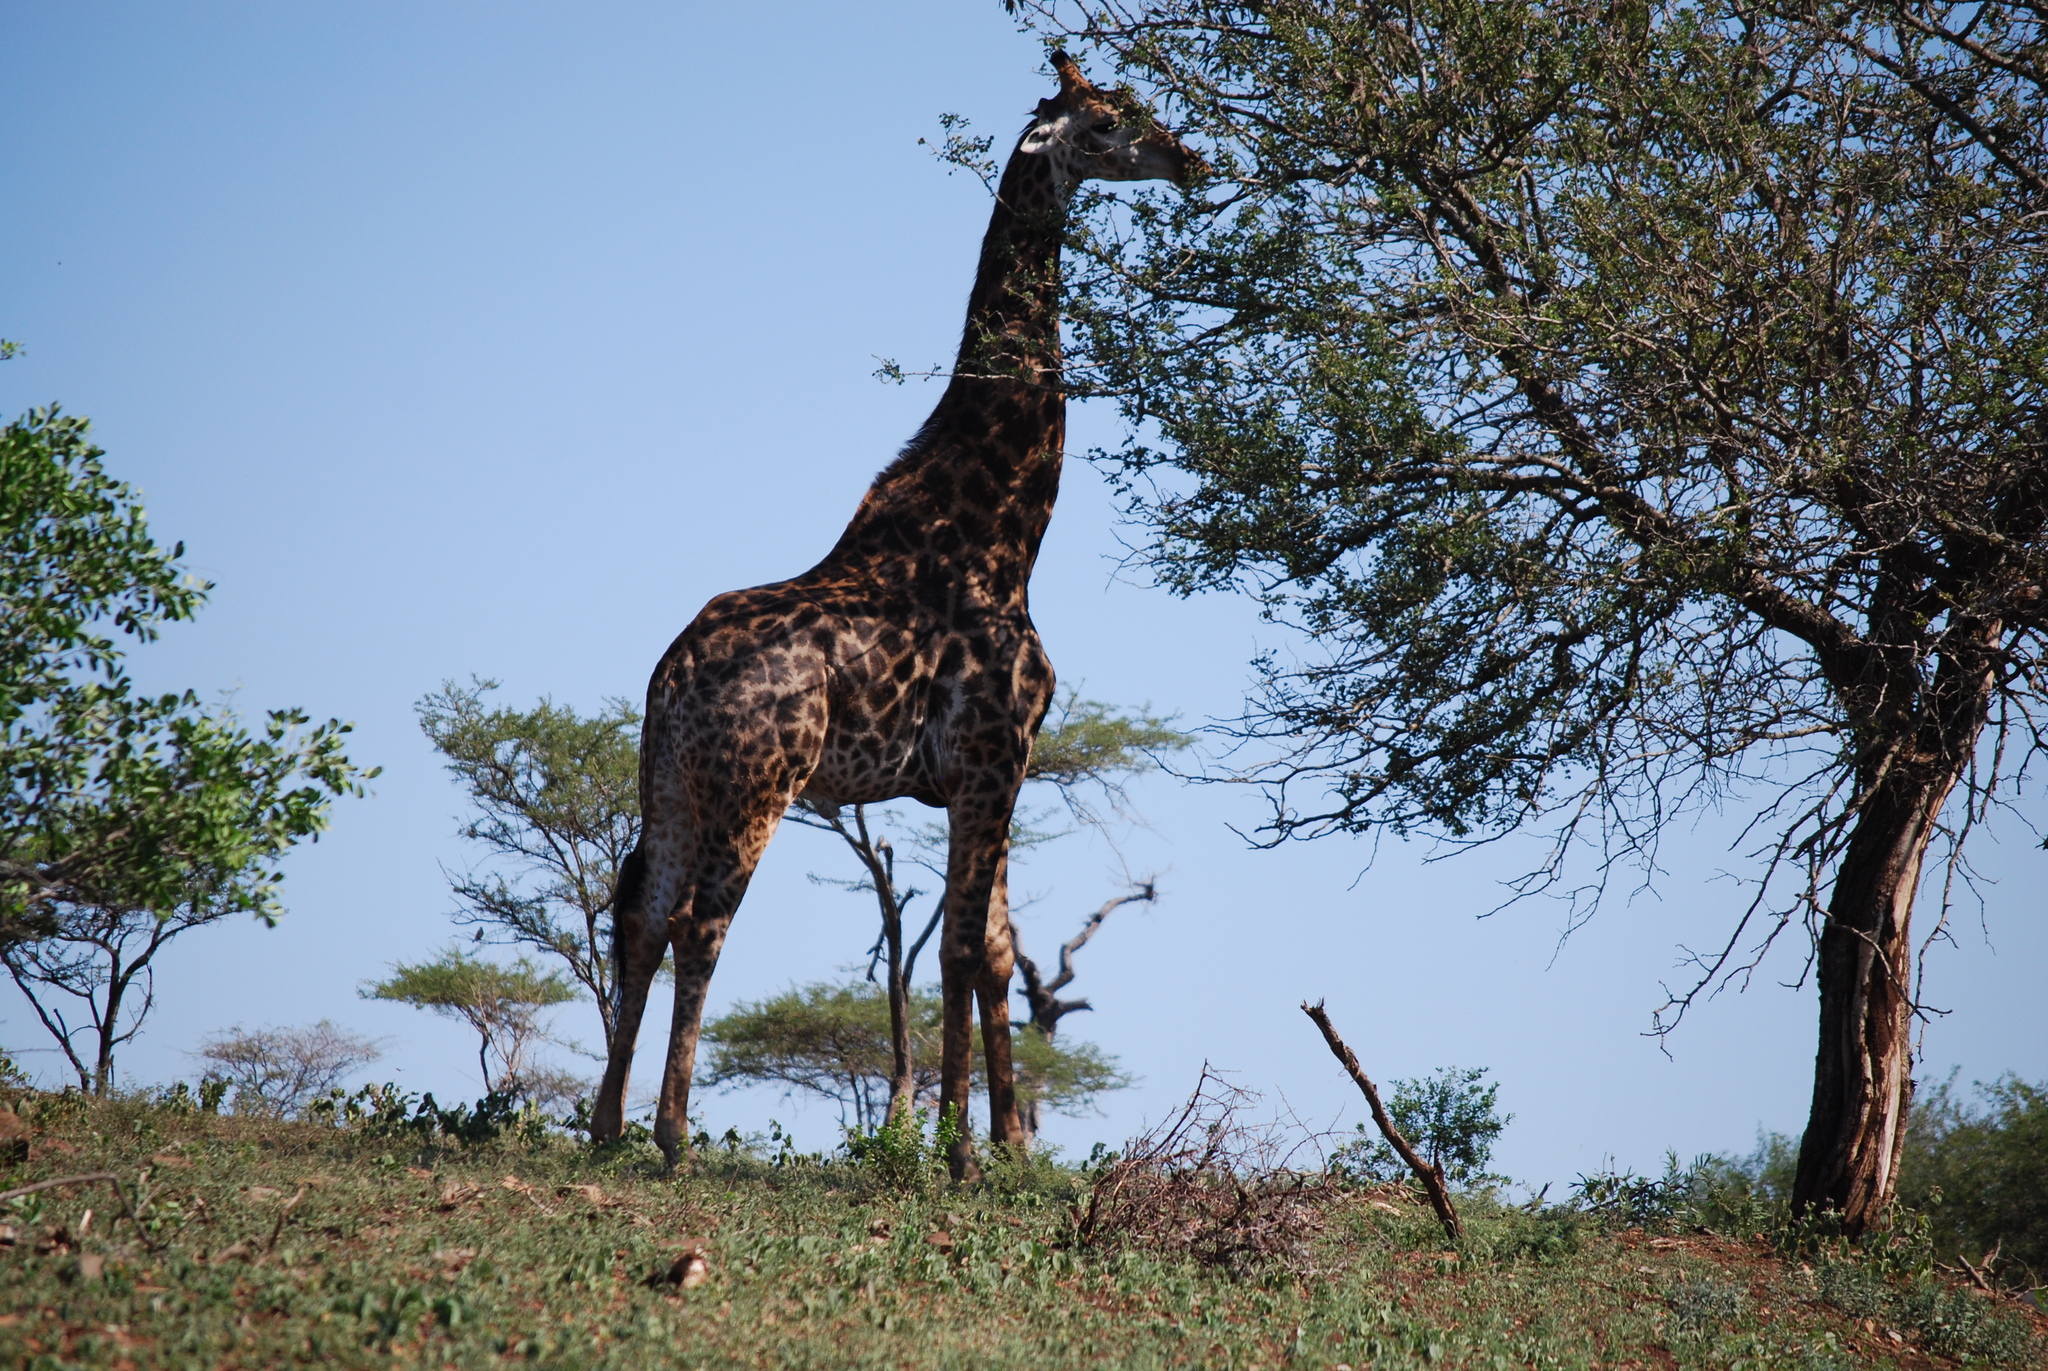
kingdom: Animalia
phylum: Chordata
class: Mammalia
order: Artiodactyla
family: Giraffidae
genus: Giraffa
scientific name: Giraffa giraffa
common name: Southern giraffe
